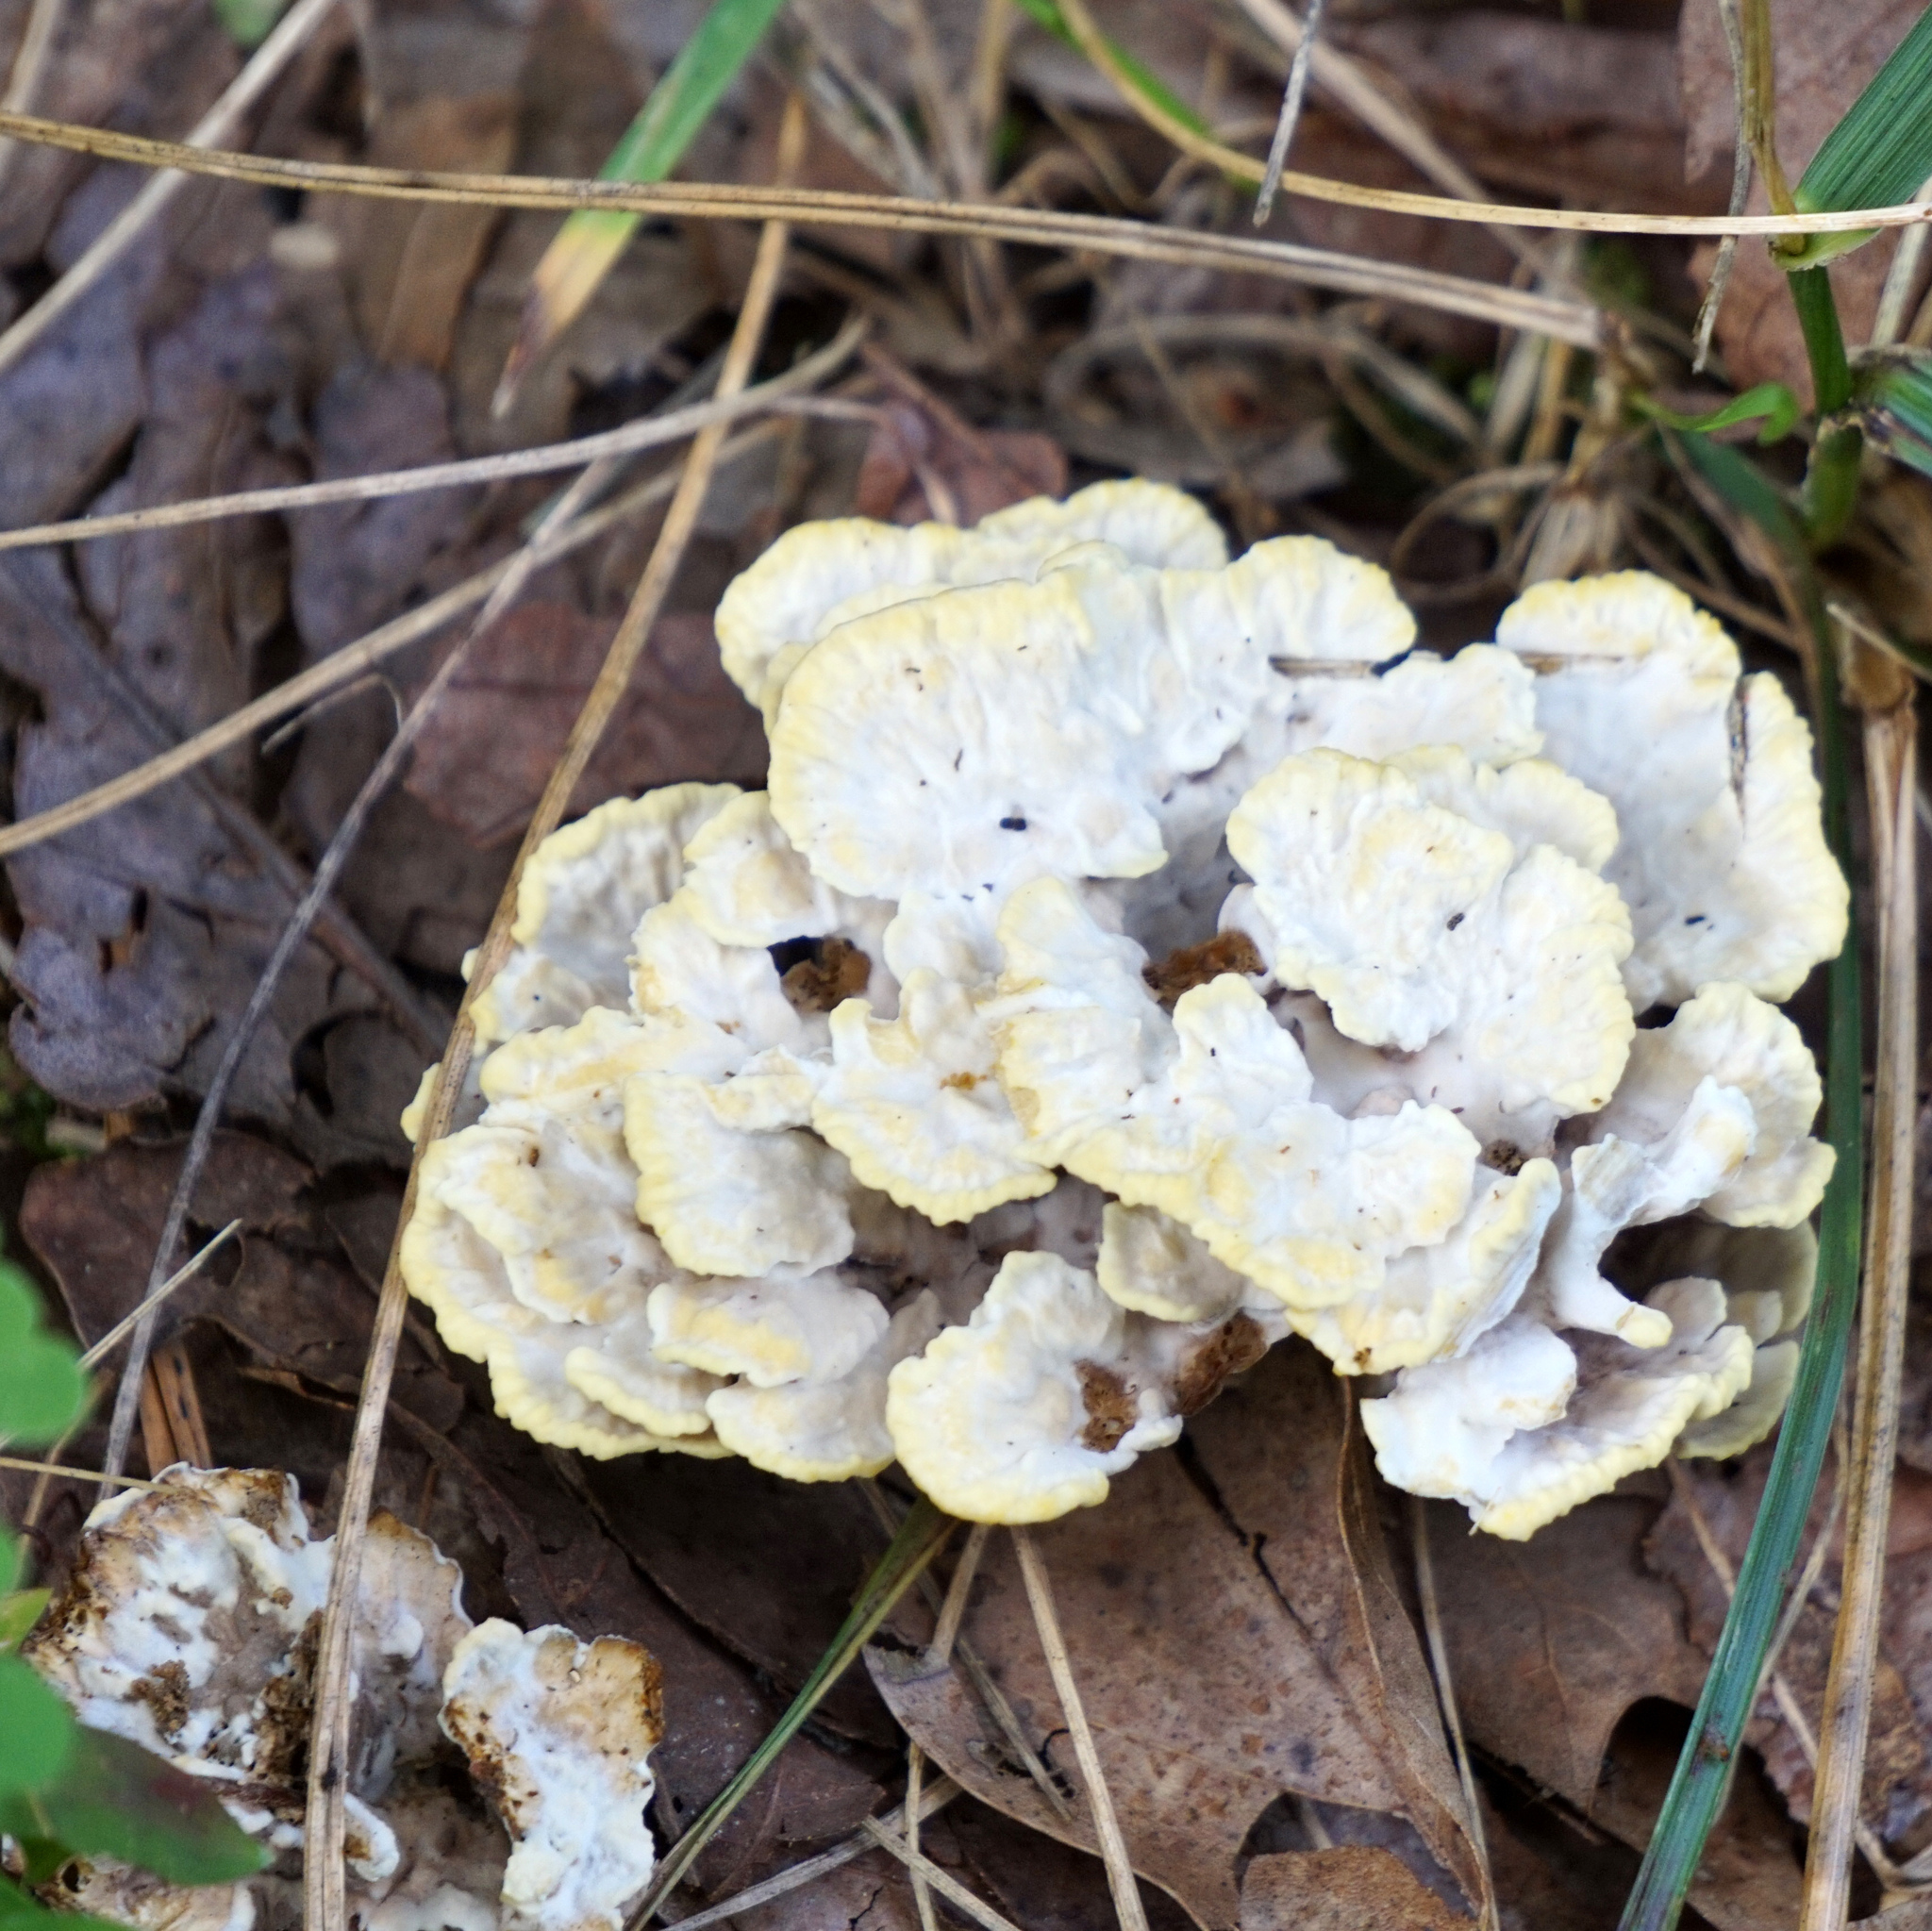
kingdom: Fungi
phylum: Basidiomycota
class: Agaricomycetes
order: Thelephorales
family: Thelephoraceae
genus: Thelephora
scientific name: Thelephora vialis
